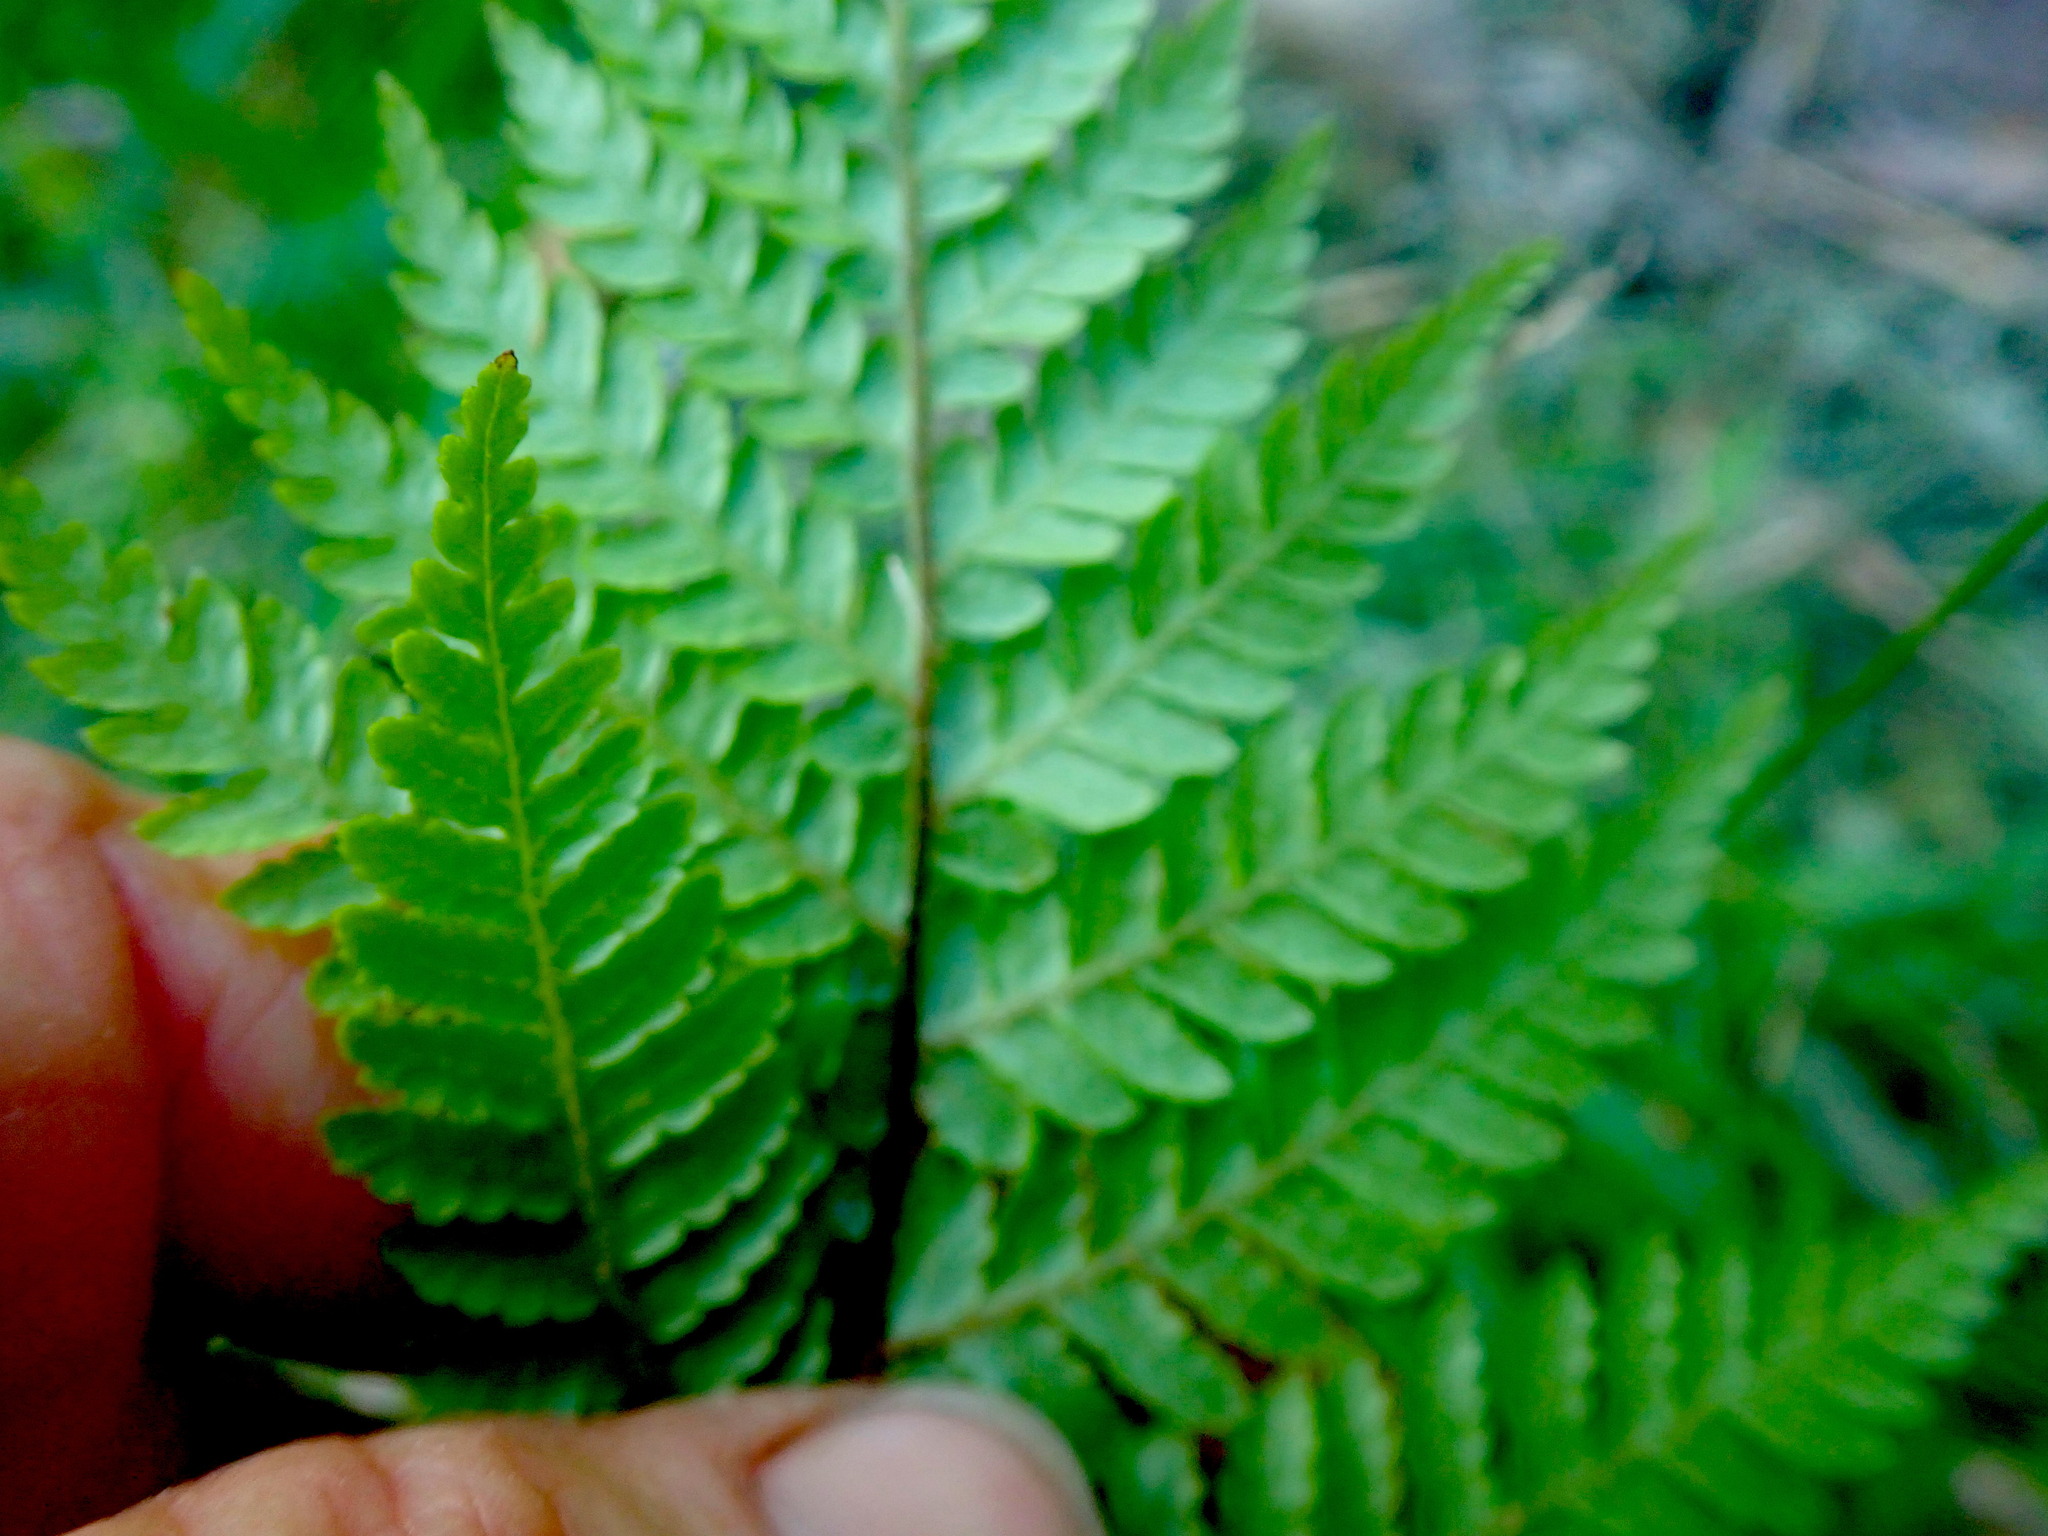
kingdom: Plantae
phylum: Tracheophyta
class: Polypodiopsida
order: Cyatheales
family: Cyatheaceae
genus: Sphaeropteris
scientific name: Sphaeropteris medullaris
